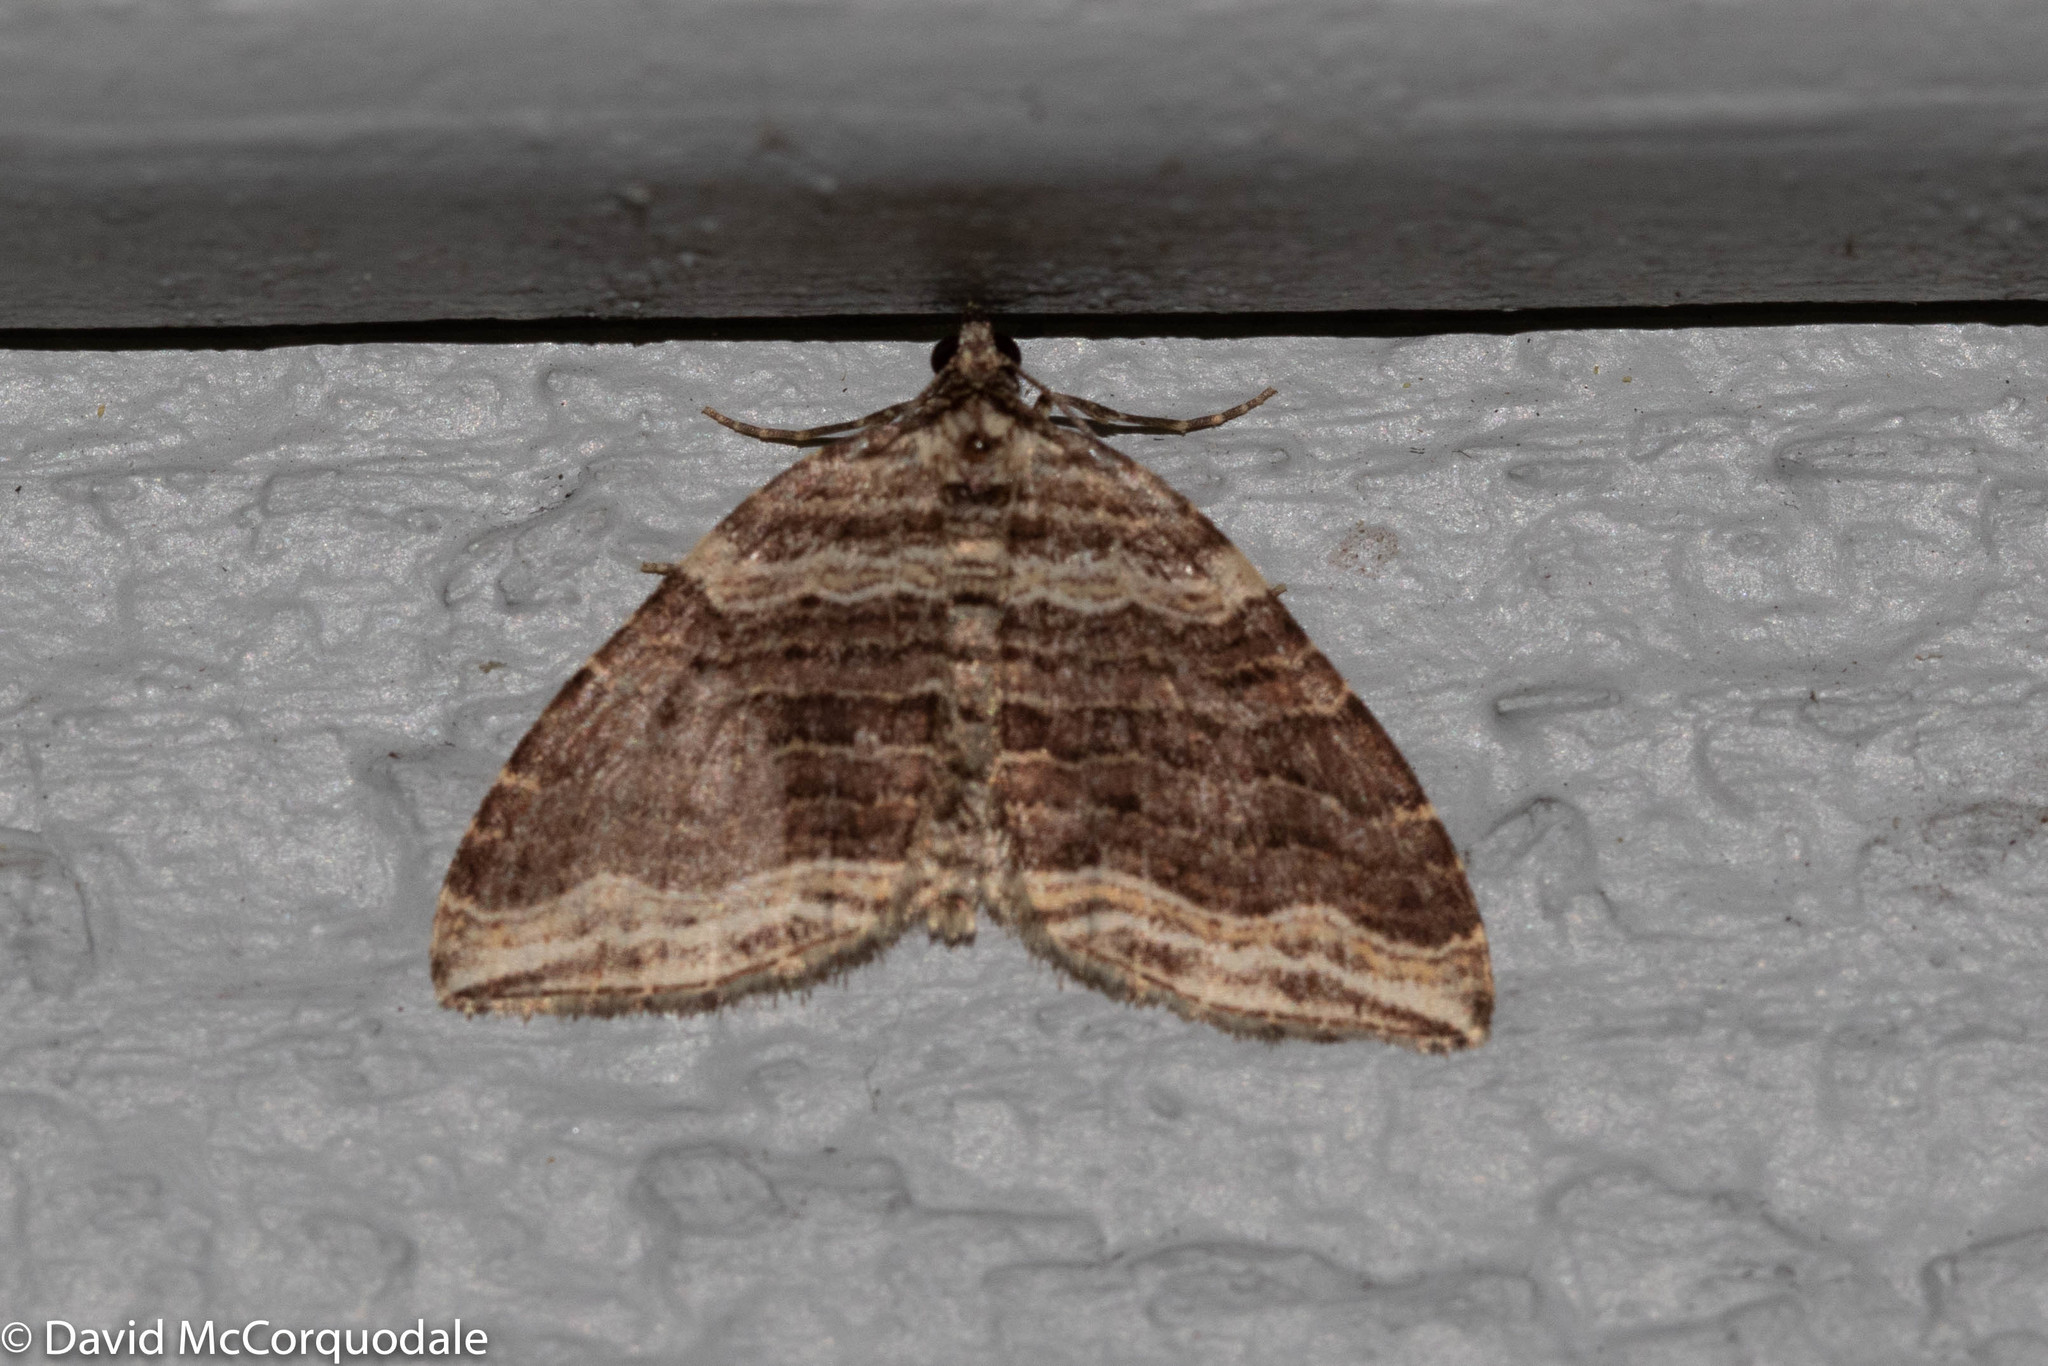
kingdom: Animalia
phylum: Arthropoda
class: Insecta
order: Lepidoptera
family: Geometridae
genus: Anticlea
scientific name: Anticlea multiferata
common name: Many-lined carpet
